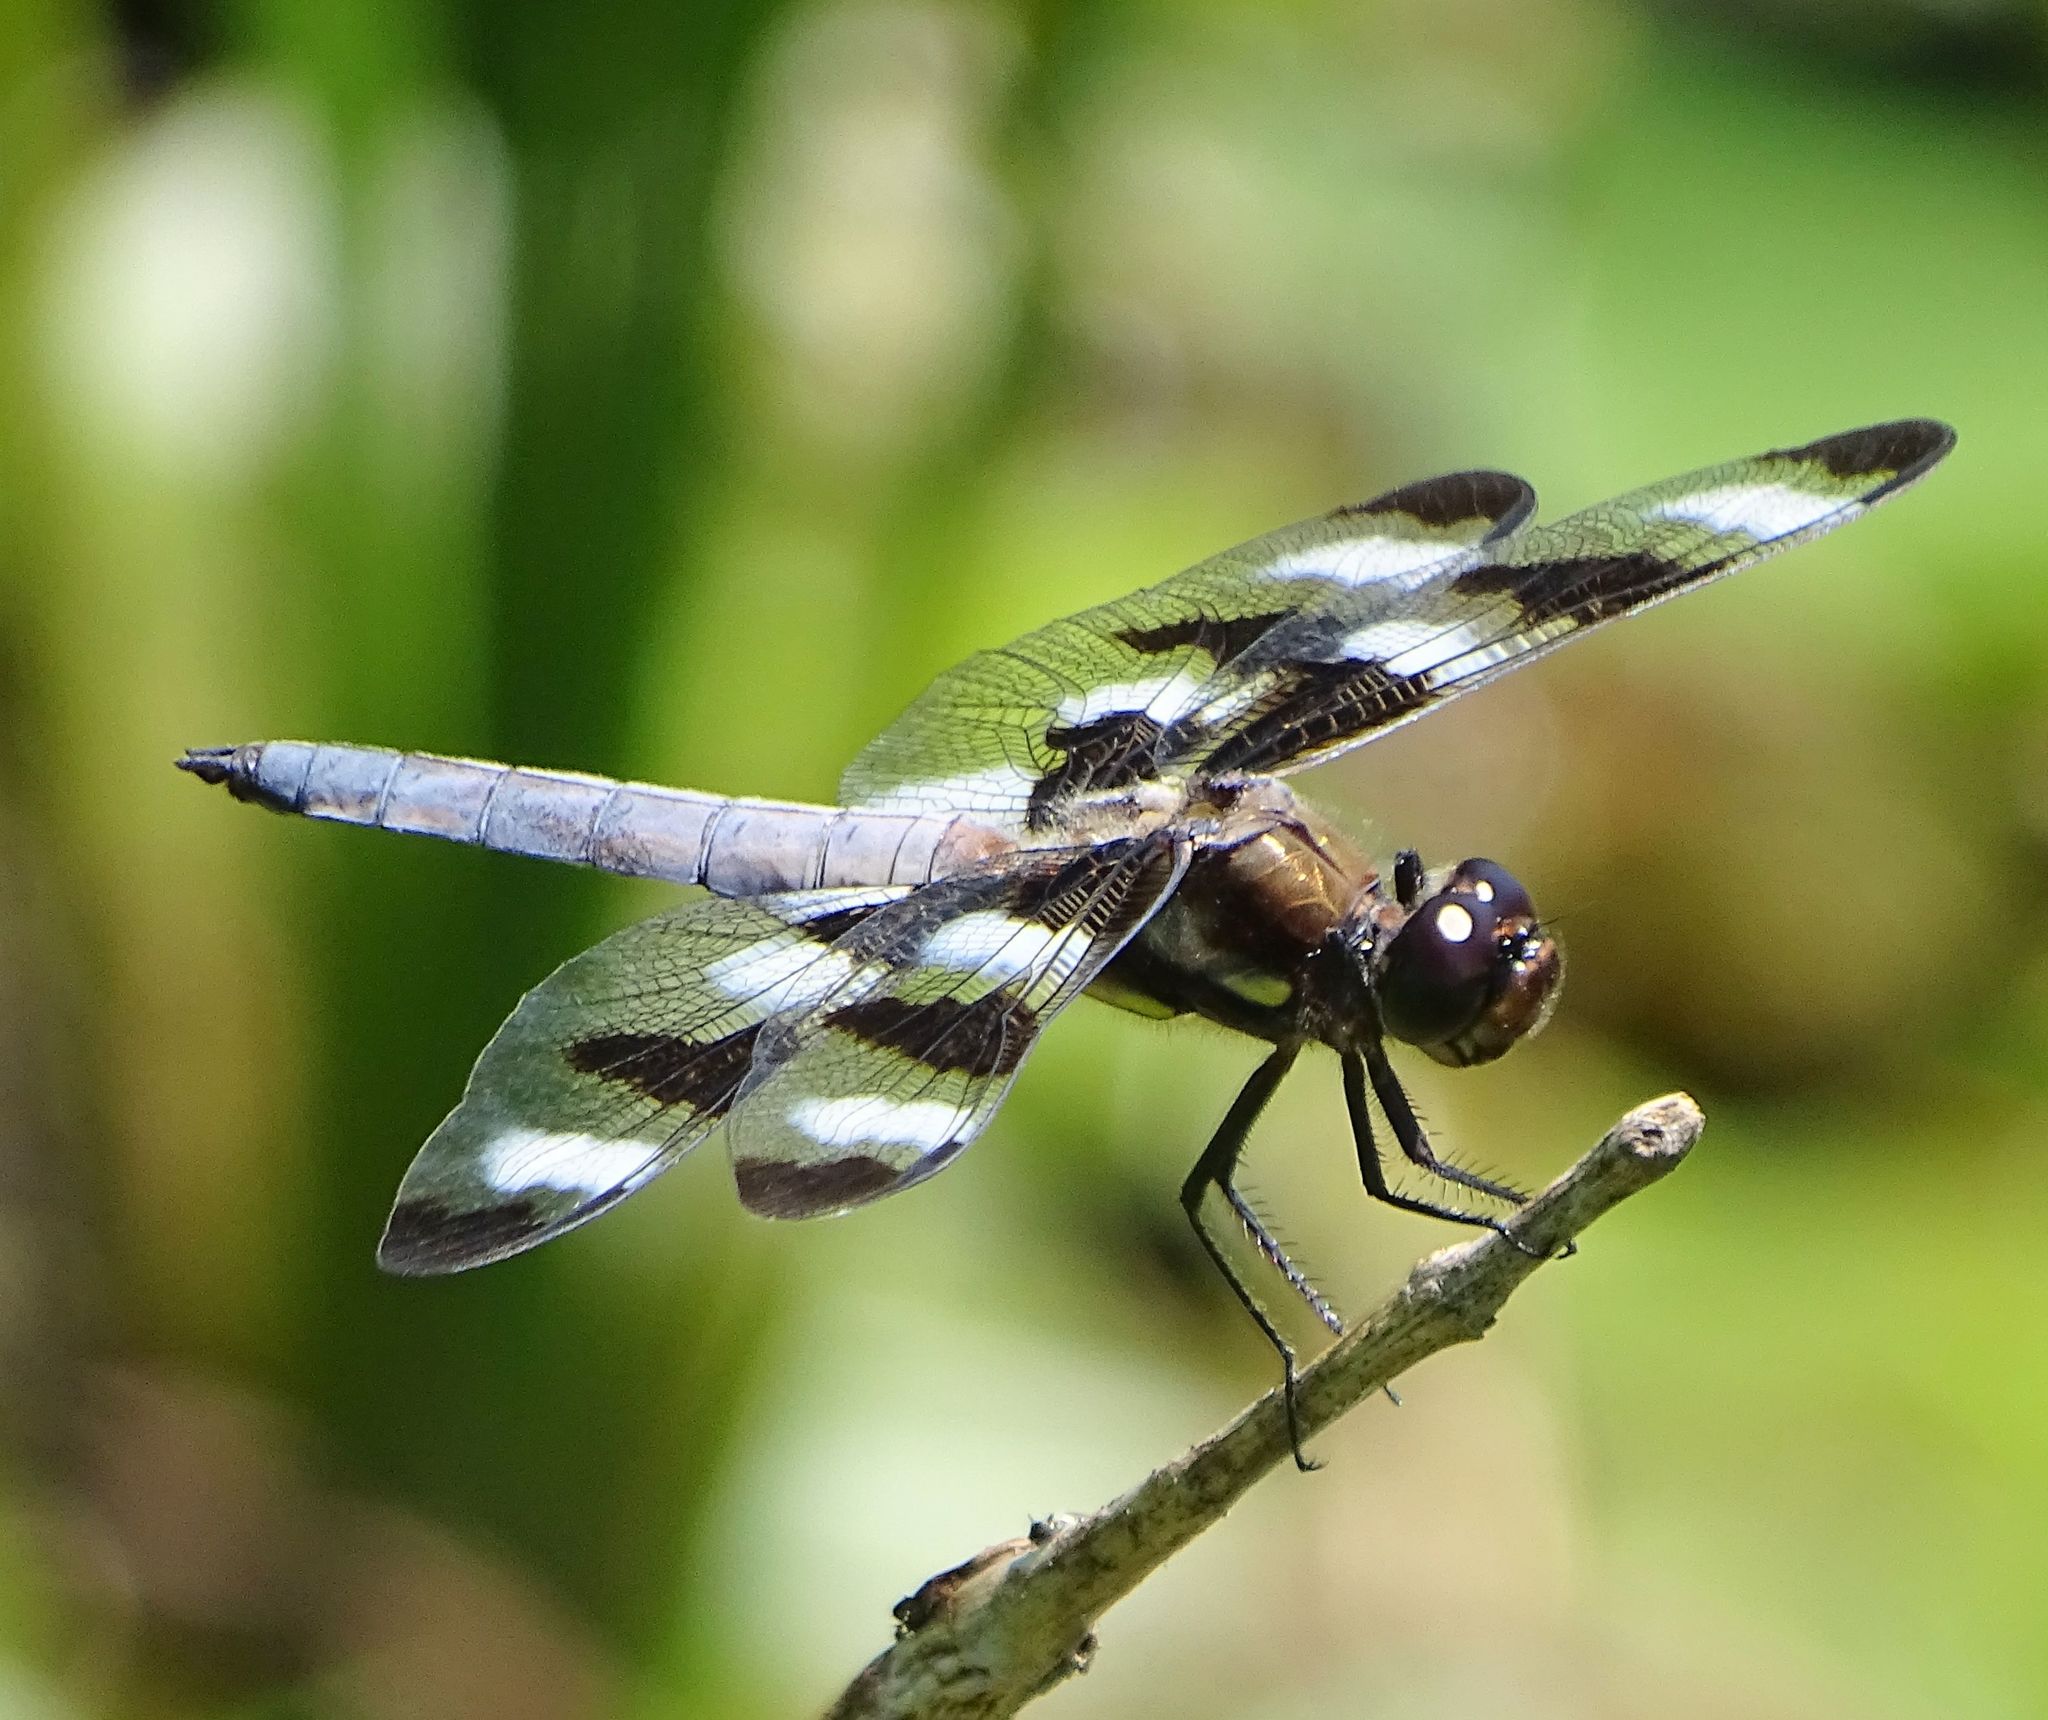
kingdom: Animalia
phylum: Arthropoda
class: Insecta
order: Odonata
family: Libellulidae
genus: Libellula
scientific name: Libellula pulchella
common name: Twelve-spotted skimmer
